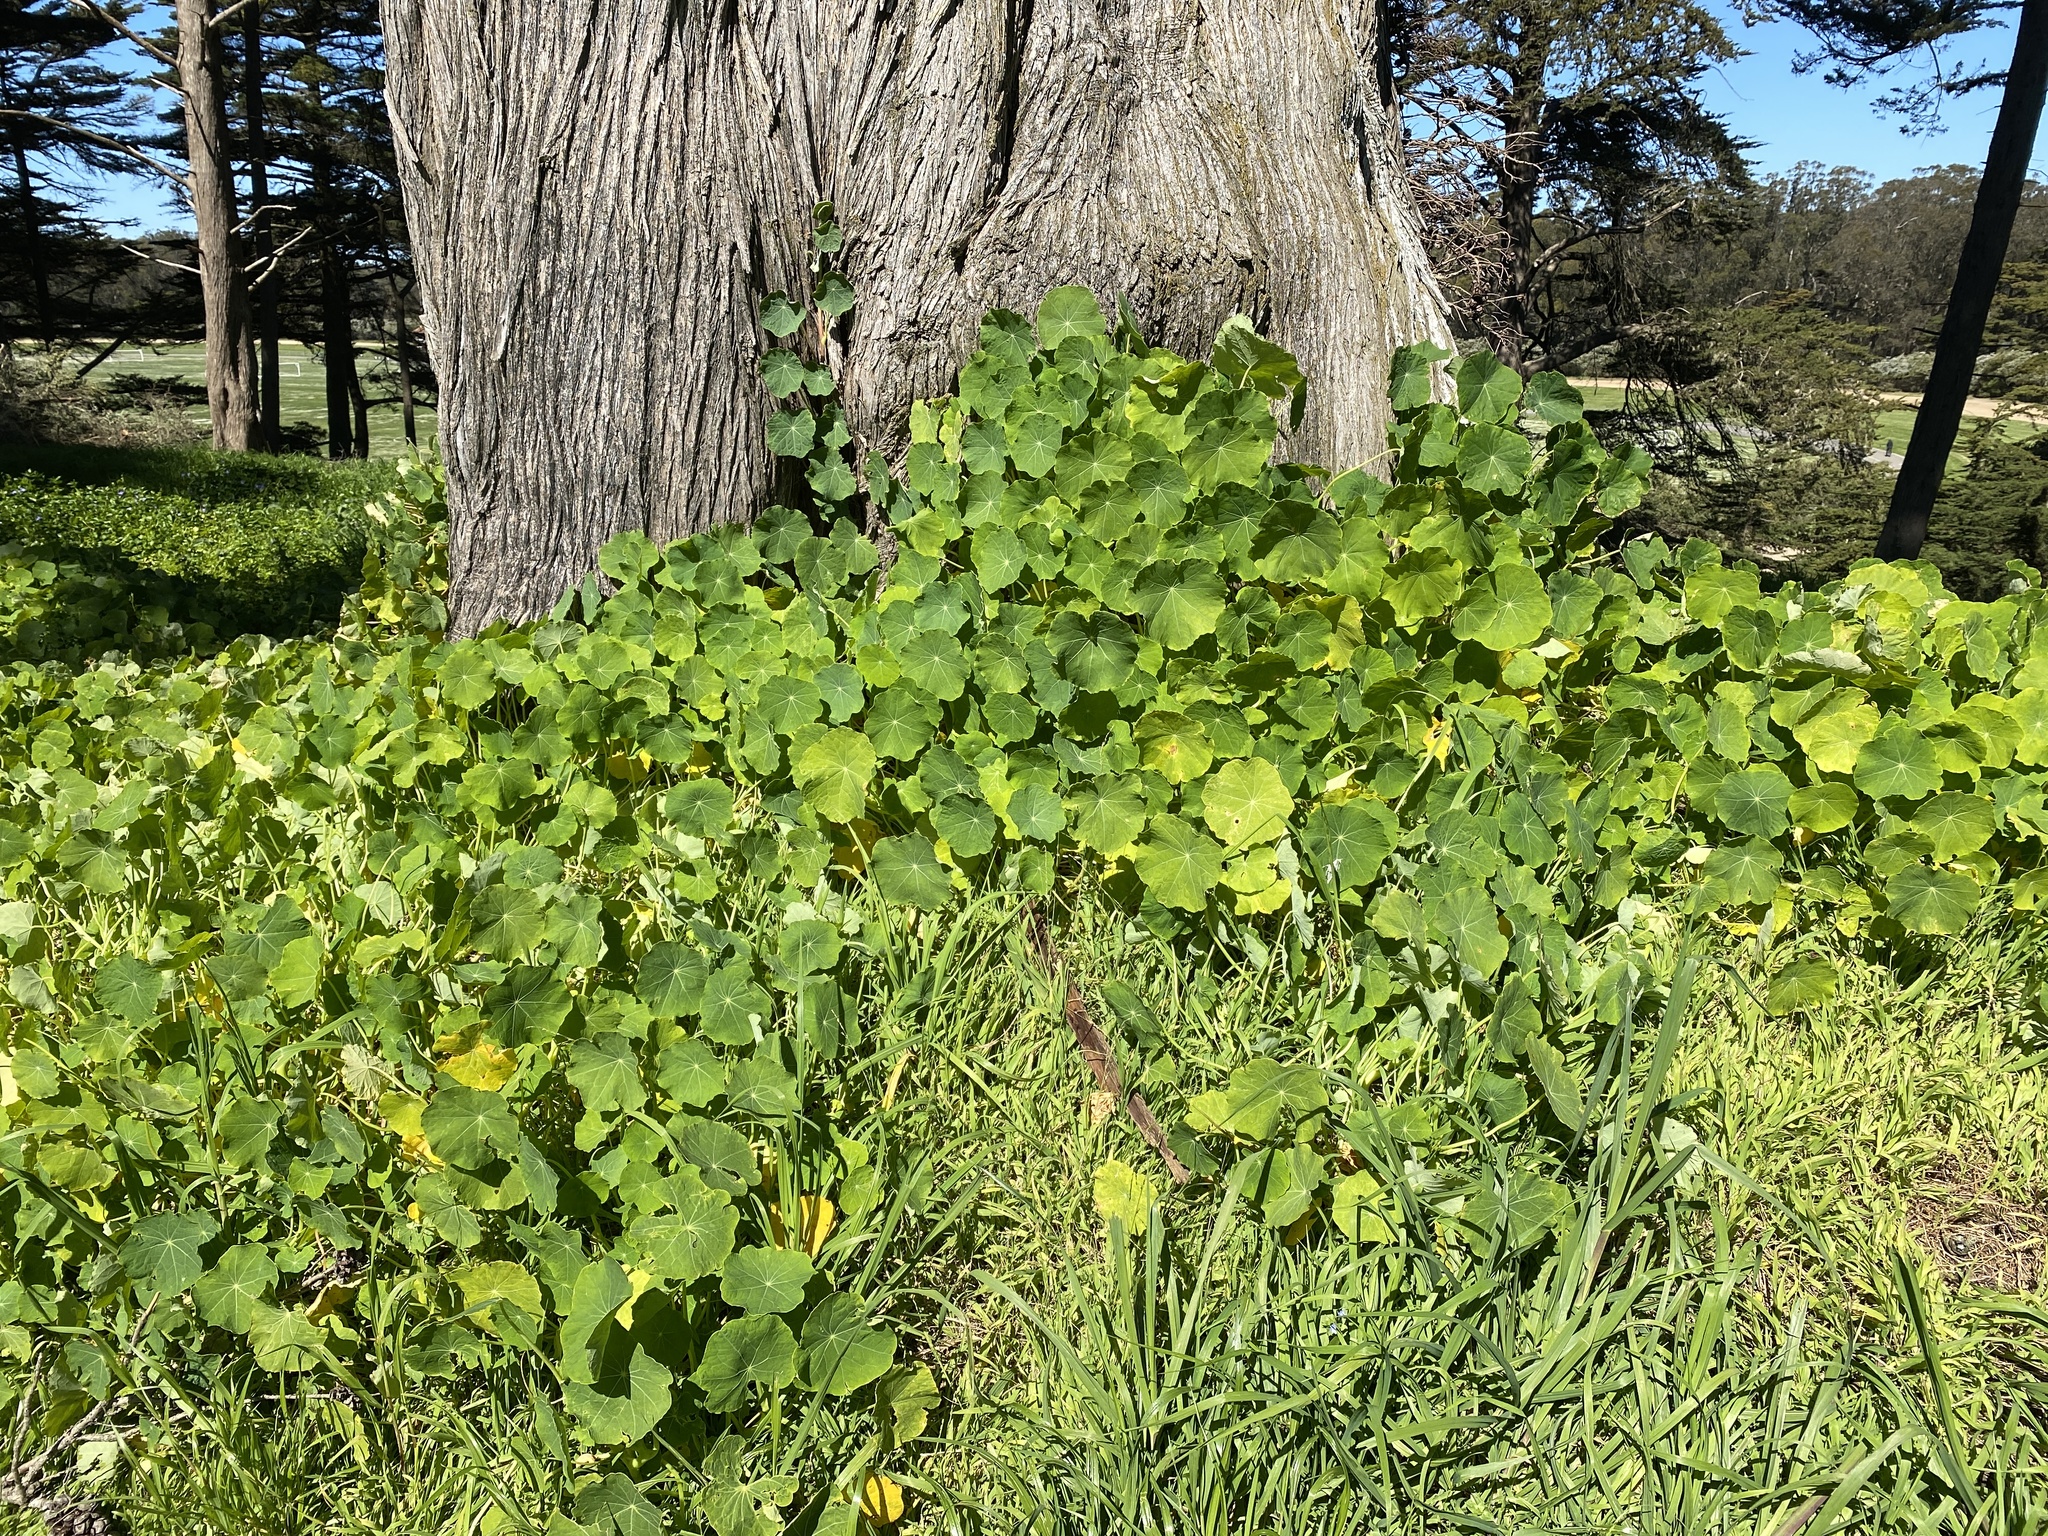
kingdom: Plantae
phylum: Tracheophyta
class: Magnoliopsida
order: Brassicales
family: Tropaeolaceae
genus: Tropaeolum
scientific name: Tropaeolum majus
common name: Nasturtium
